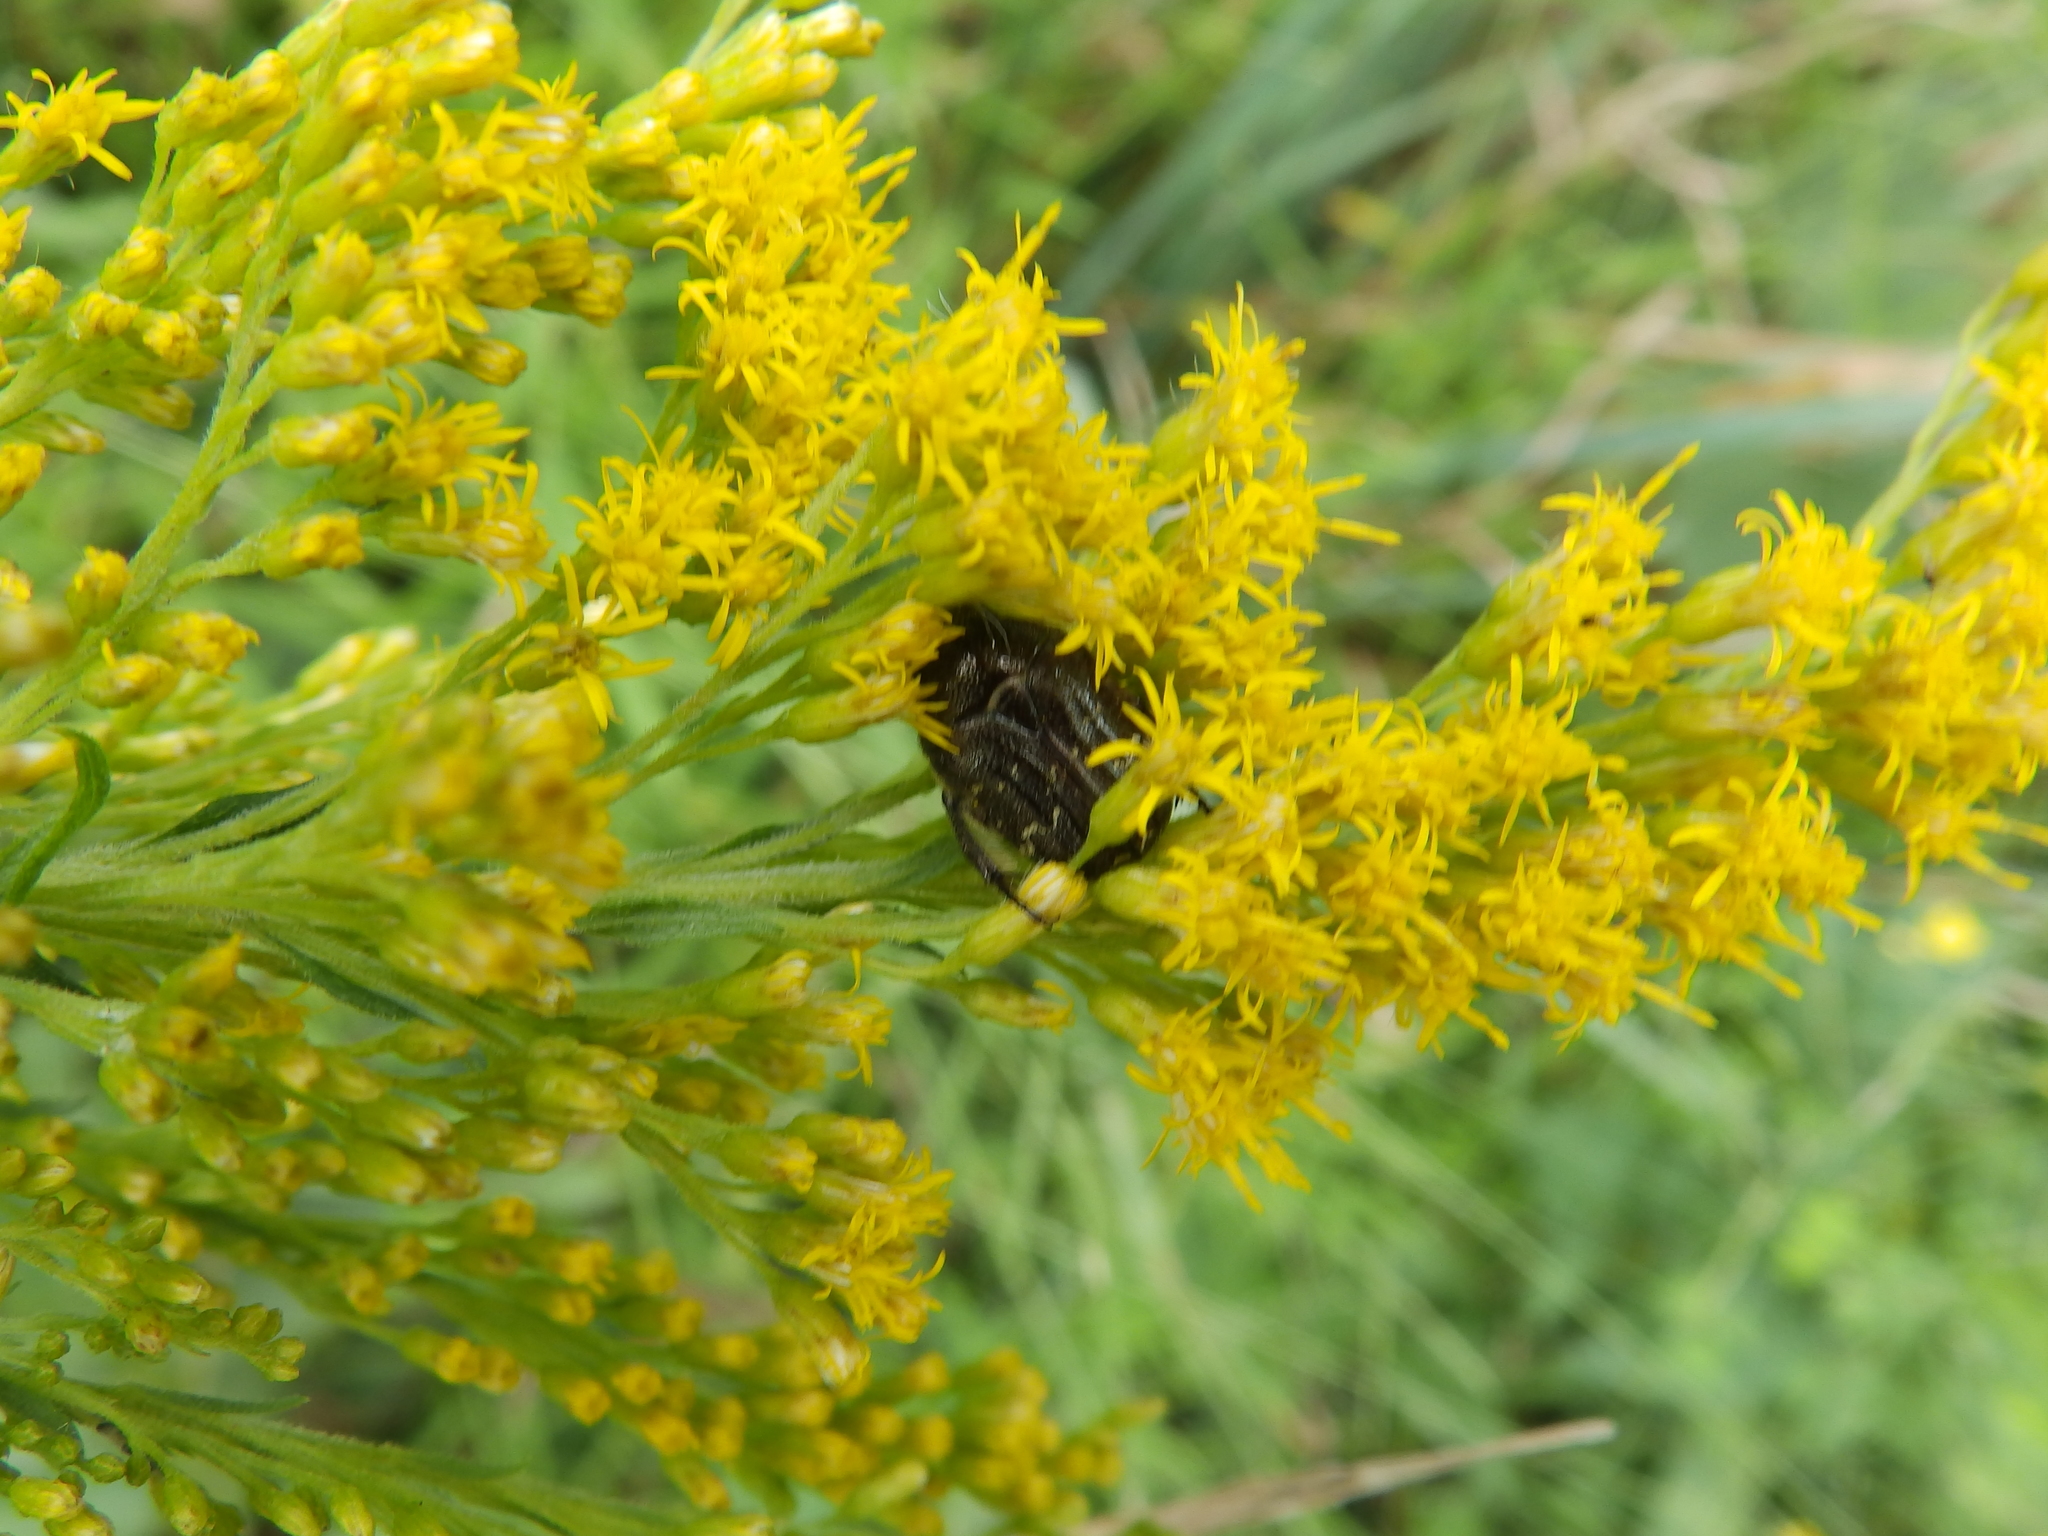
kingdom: Animalia
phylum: Arthropoda
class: Insecta
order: Coleoptera
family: Scarabaeidae
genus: Euphoria
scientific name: Euphoria sepulcralis
